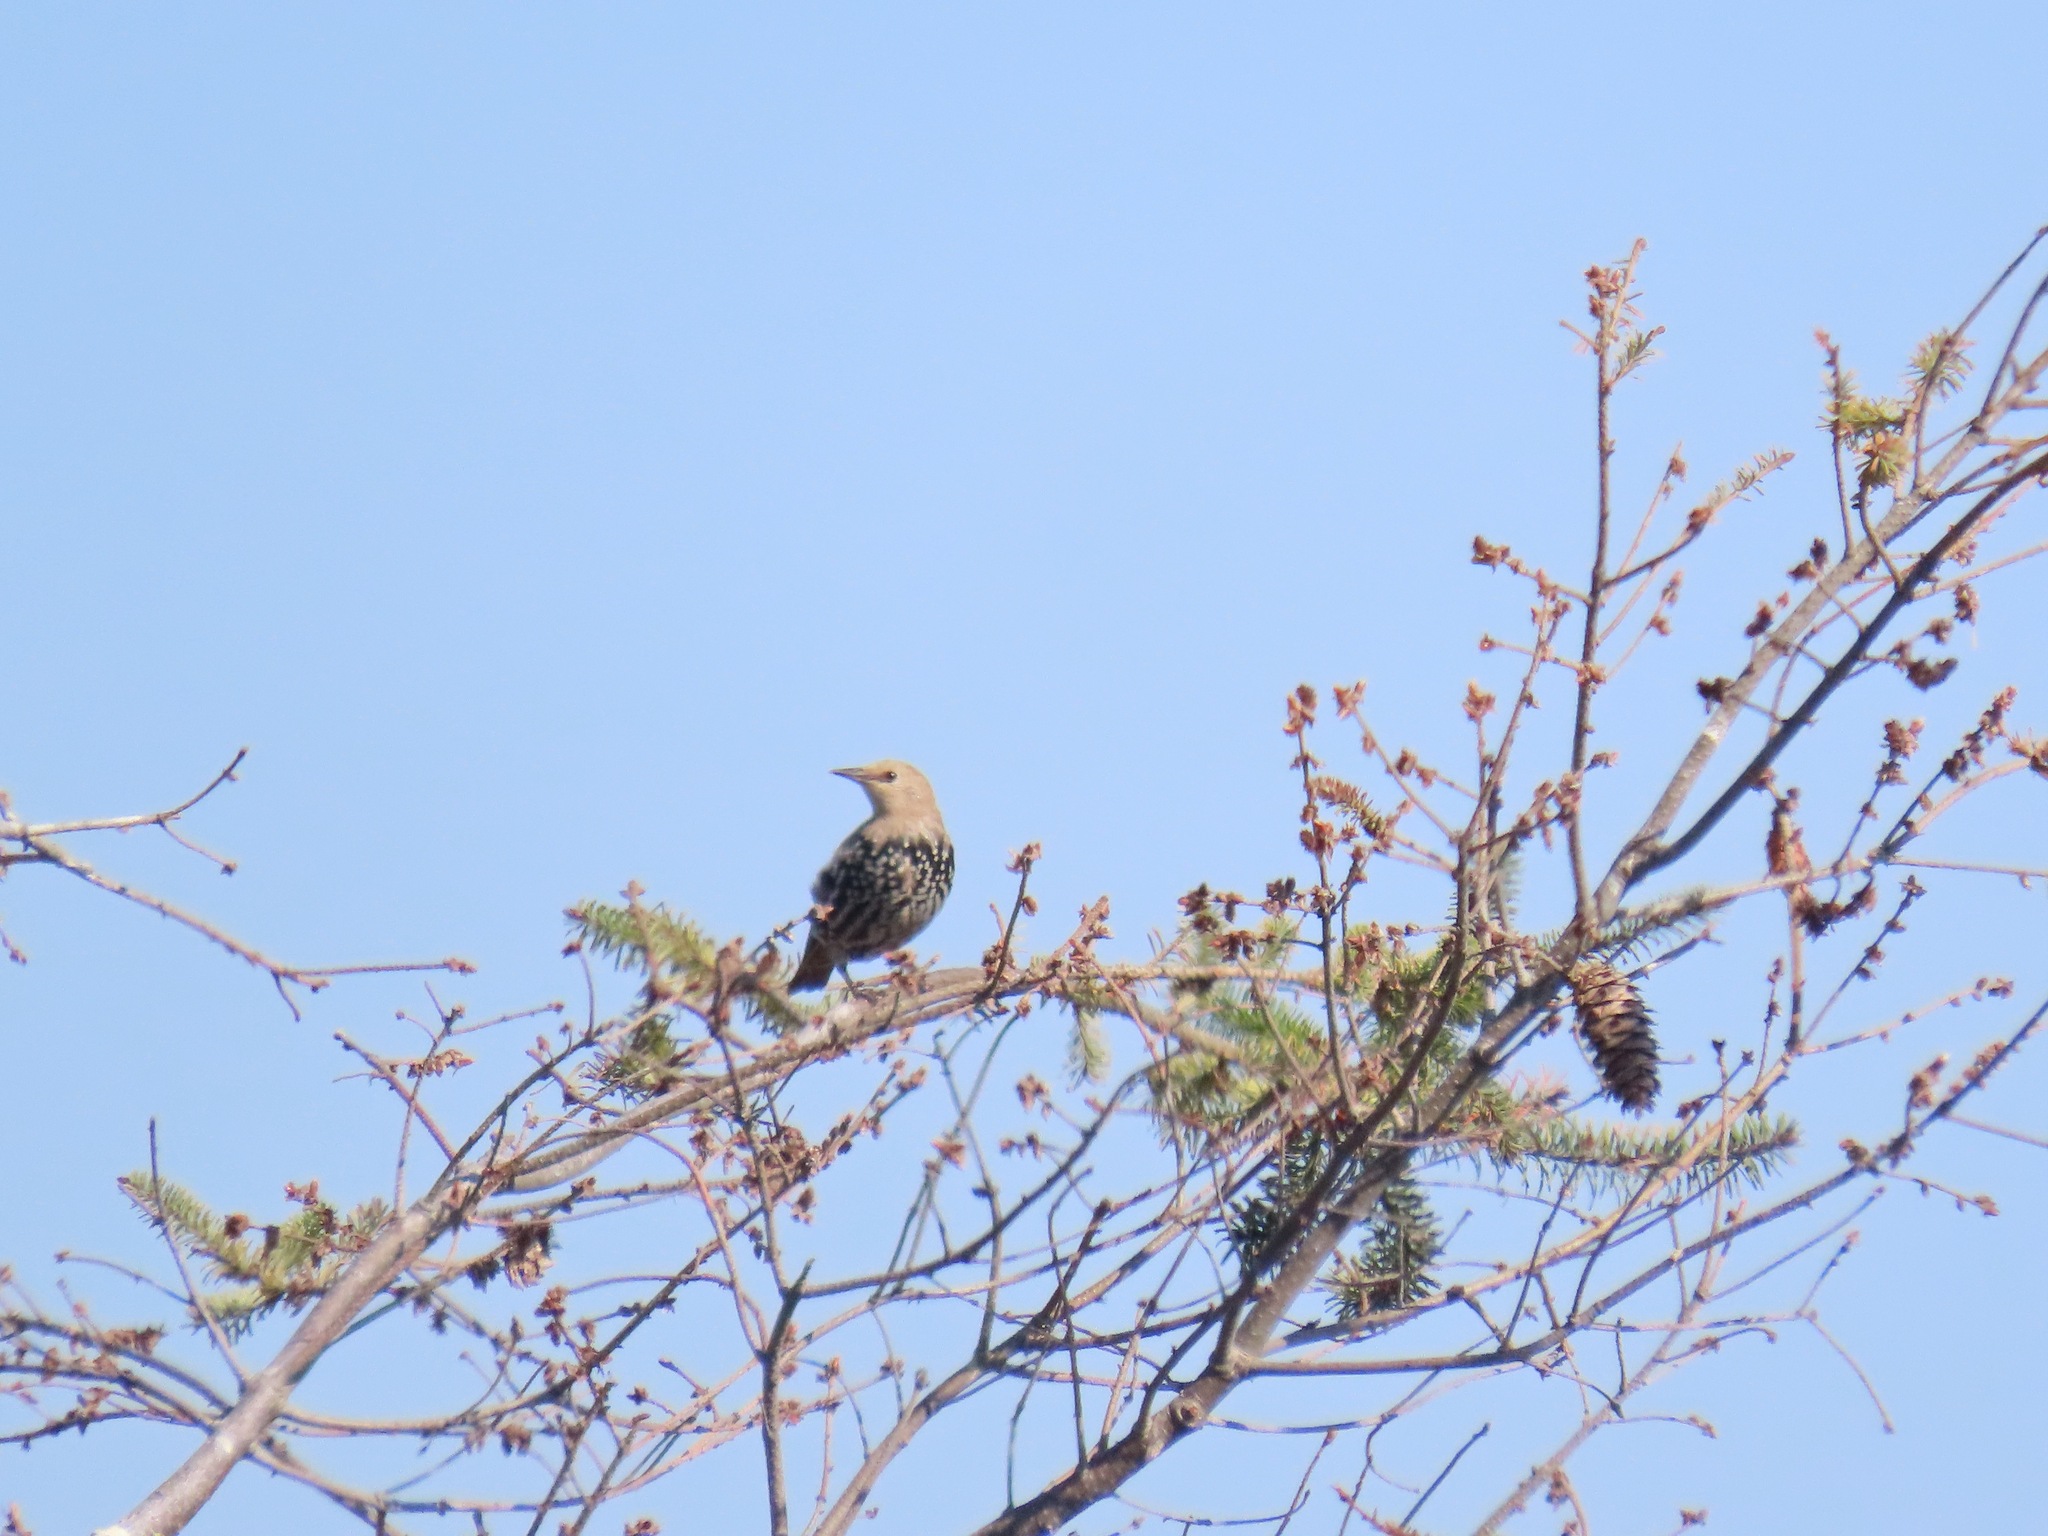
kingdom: Animalia
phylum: Chordata
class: Aves
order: Passeriformes
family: Sturnidae
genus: Sturnus
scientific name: Sturnus vulgaris
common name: Common starling
